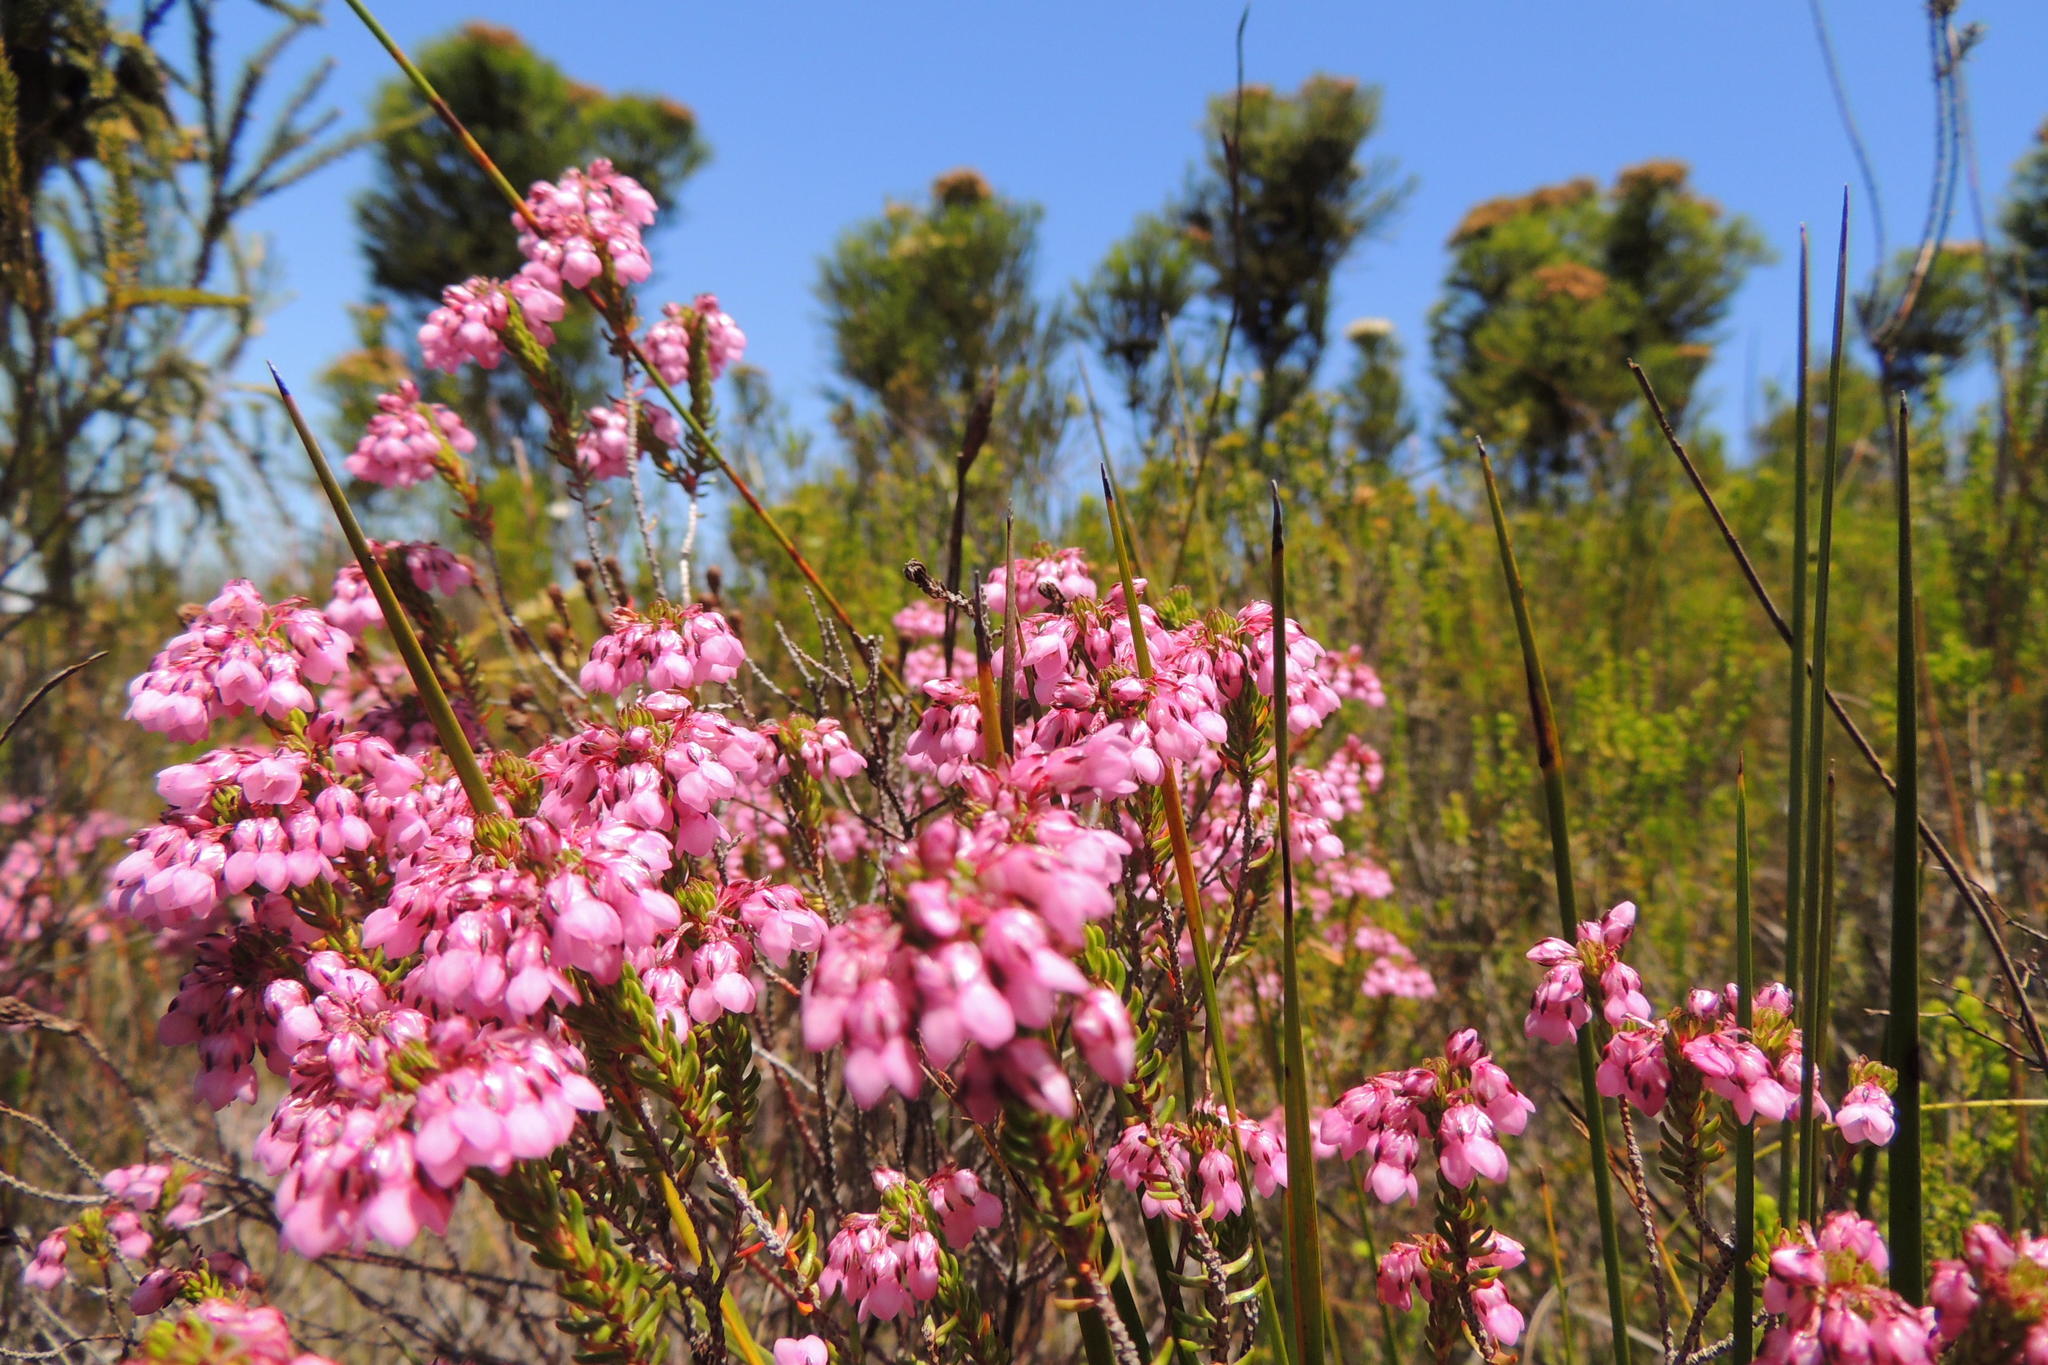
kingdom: Plantae
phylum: Tracheophyta
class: Magnoliopsida
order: Ericales
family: Ericaceae
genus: Erica
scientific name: Erica cubica
